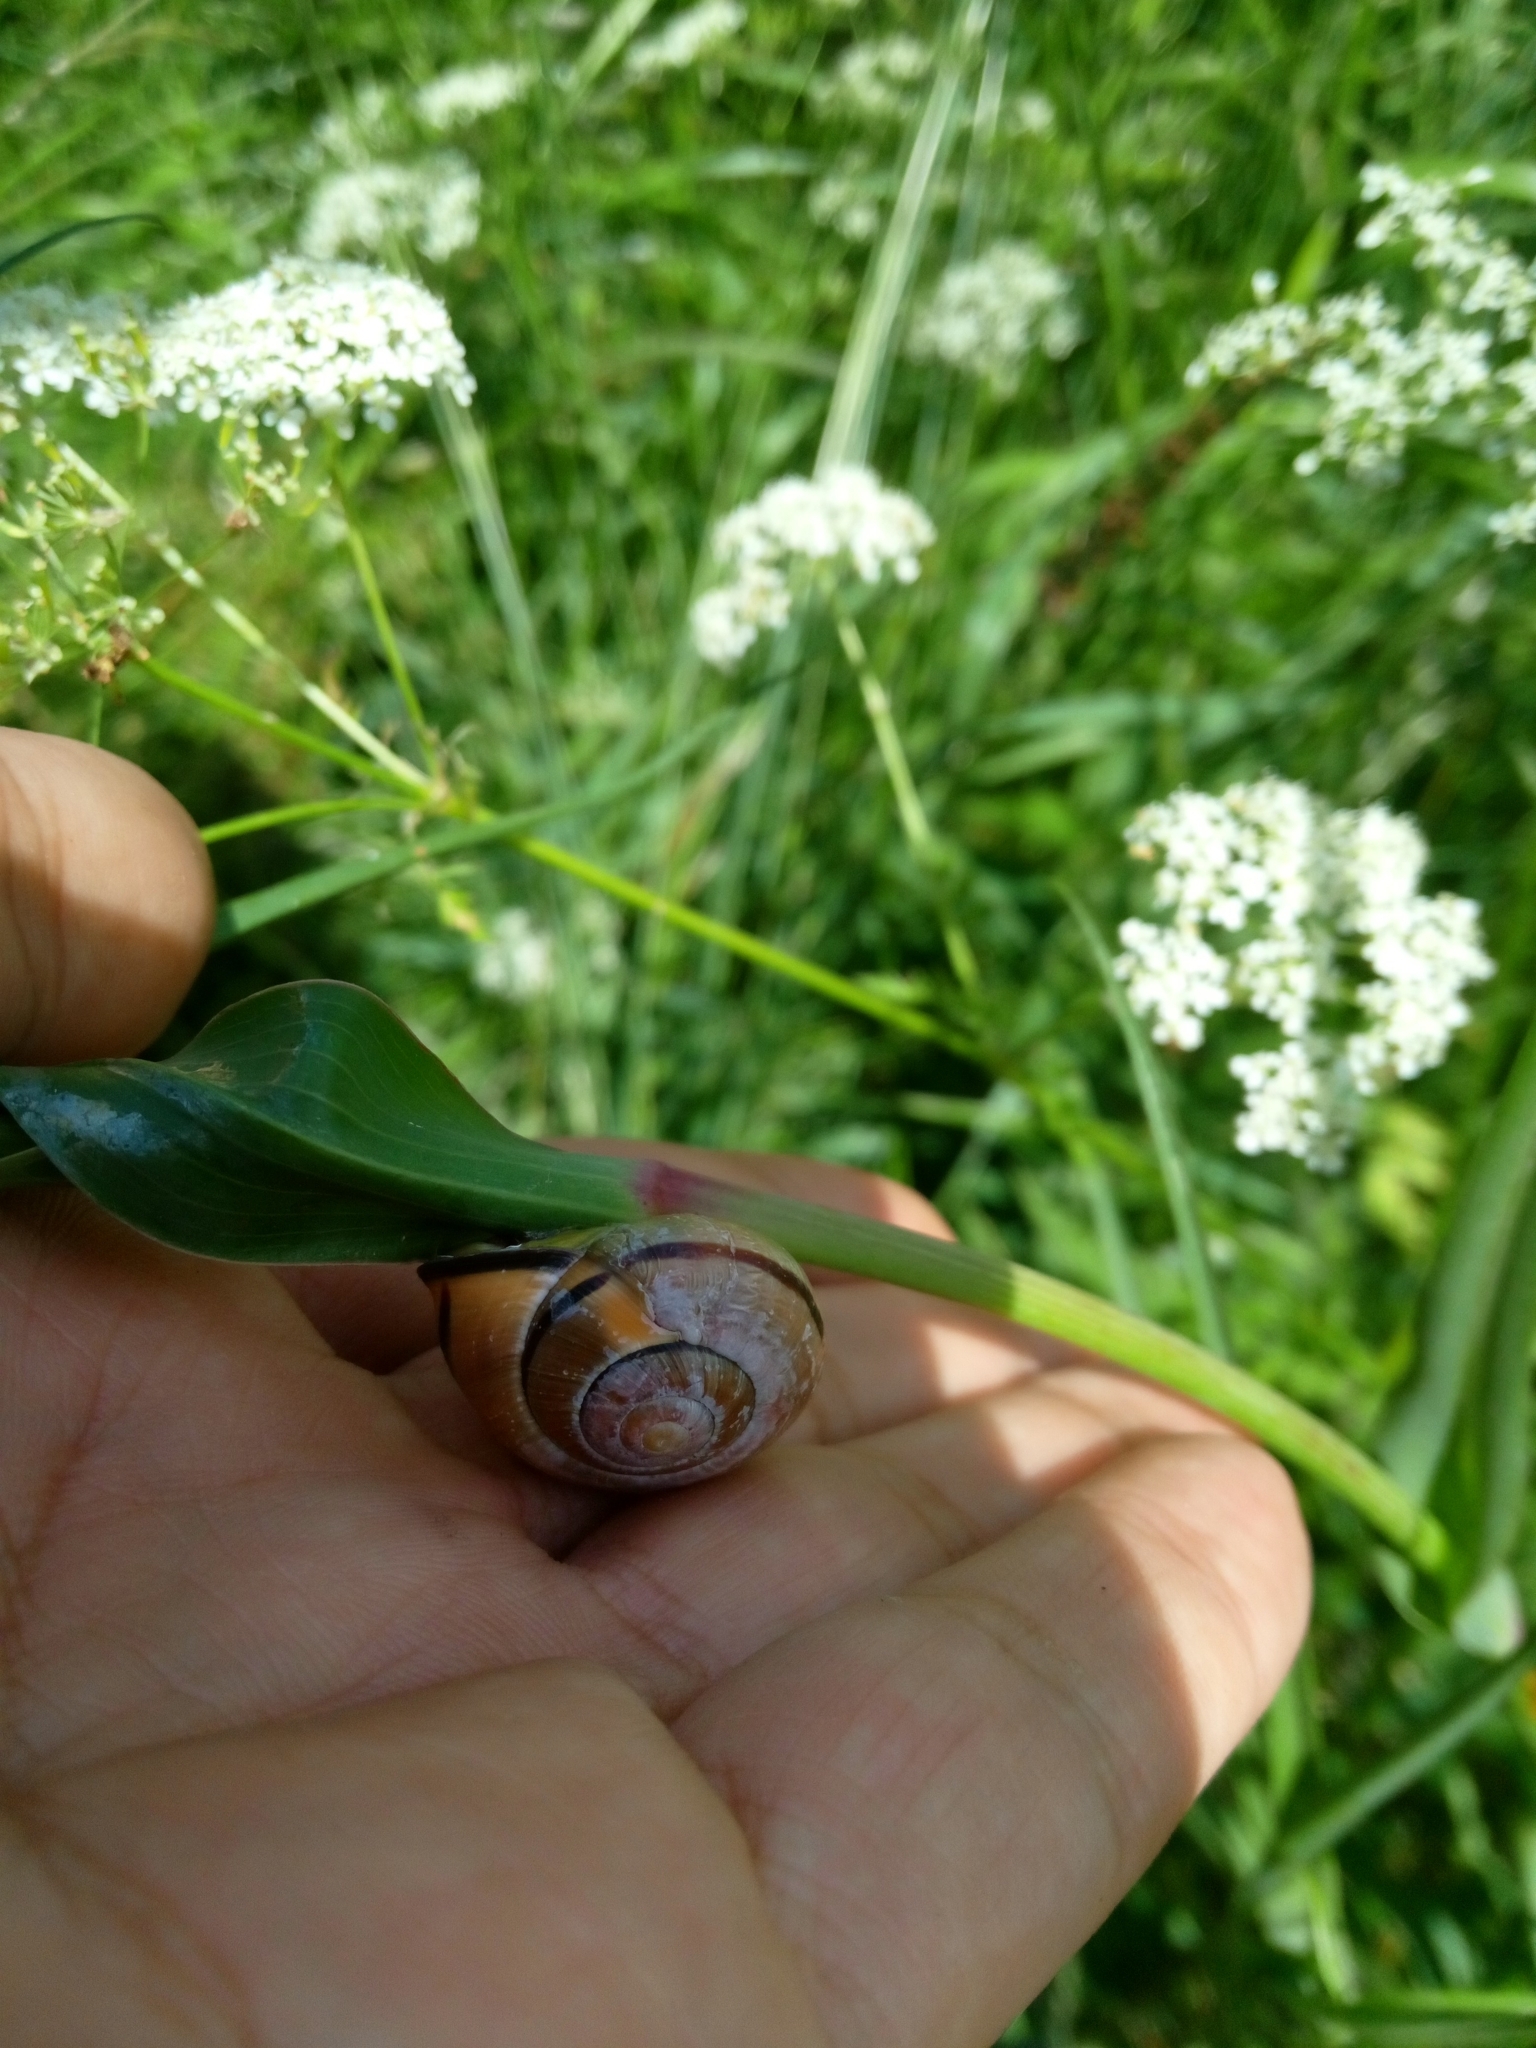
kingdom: Animalia
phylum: Mollusca
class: Gastropoda
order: Stylommatophora
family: Helicidae
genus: Cepaea
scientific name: Cepaea nemoralis
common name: Grovesnail
